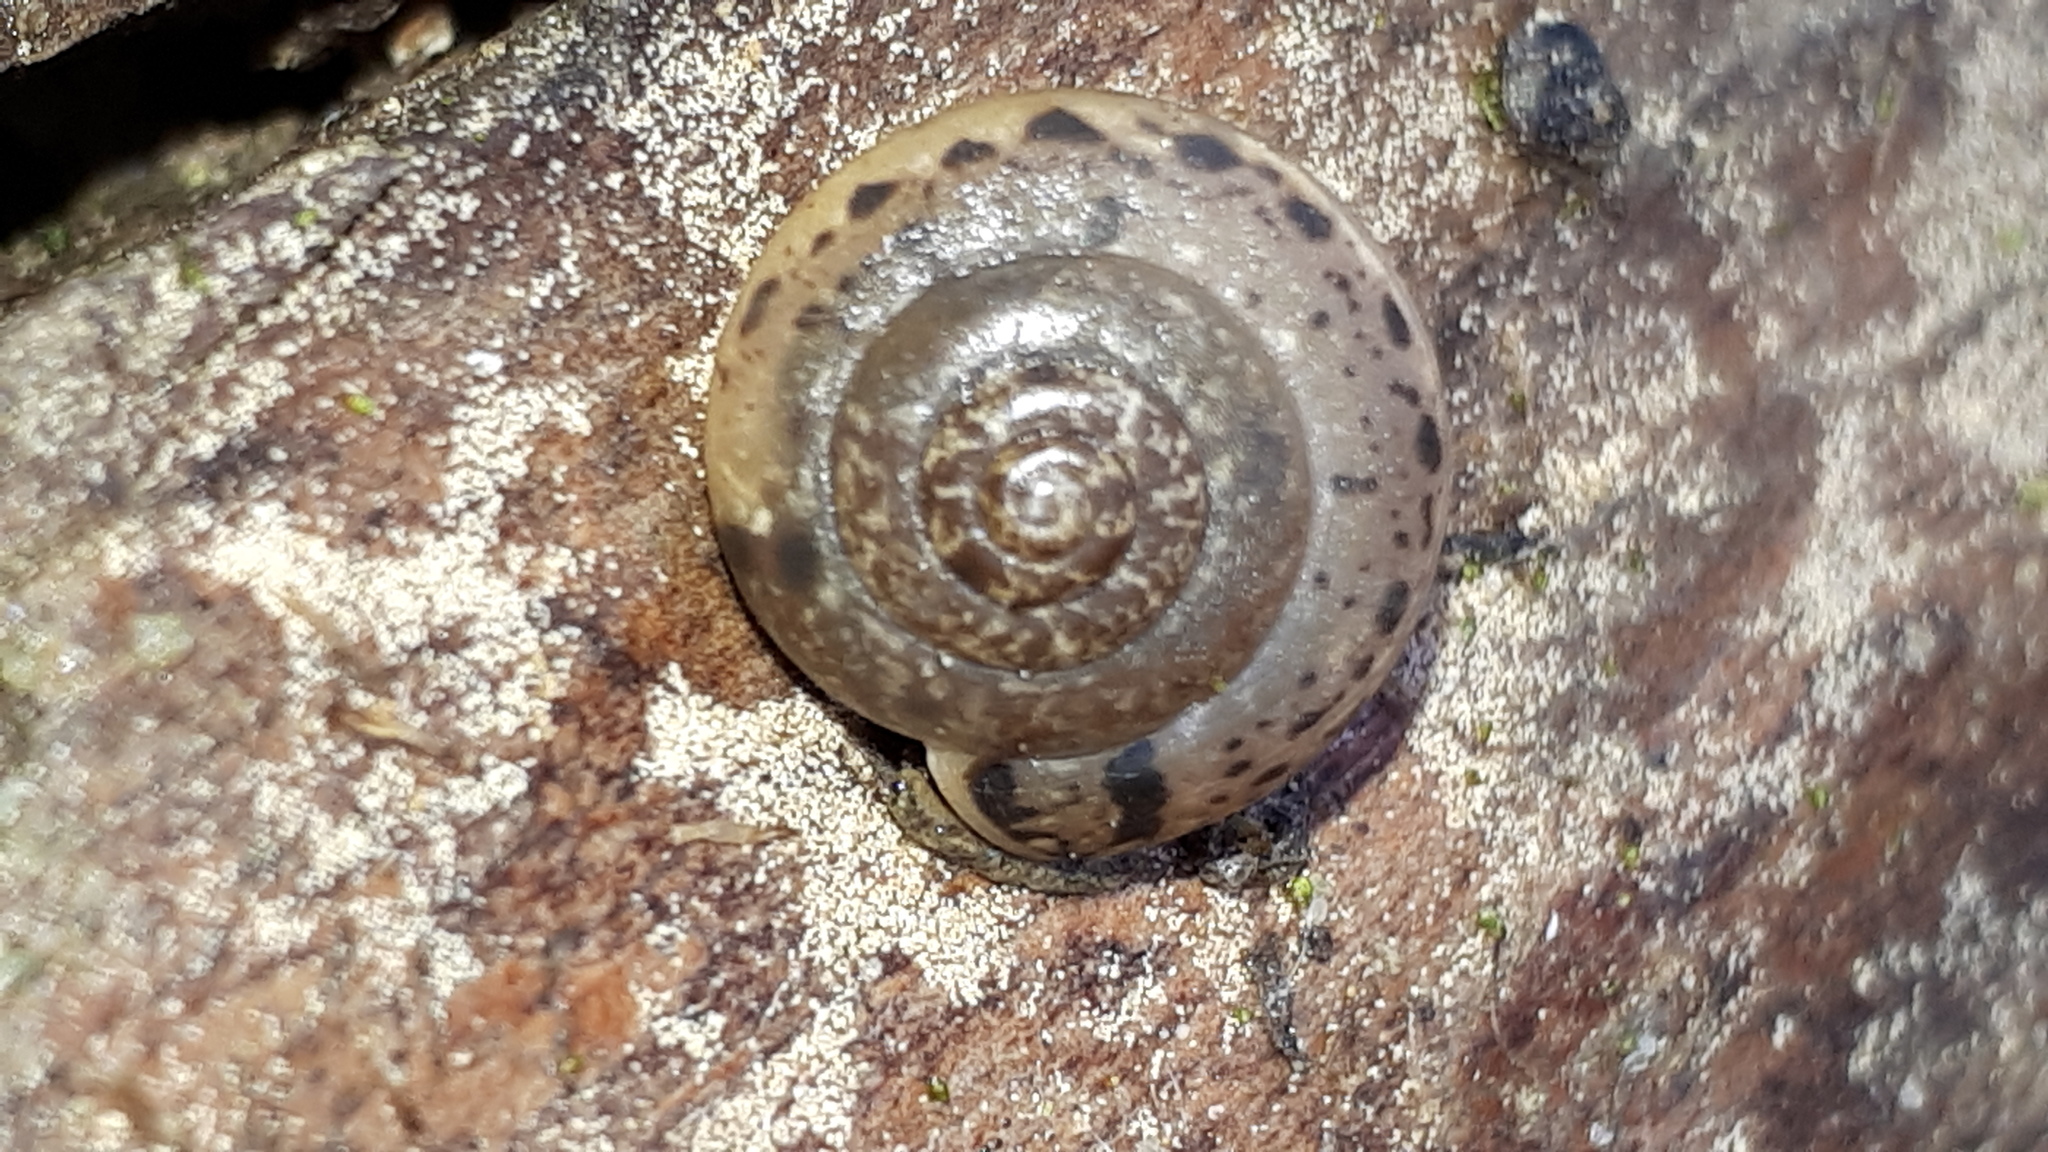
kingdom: Animalia
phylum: Mollusca
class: Gastropoda
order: Stylommatophora
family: Hygromiidae
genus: Monachoides
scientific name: Monachoides incarnatus
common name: Incarnate snail
